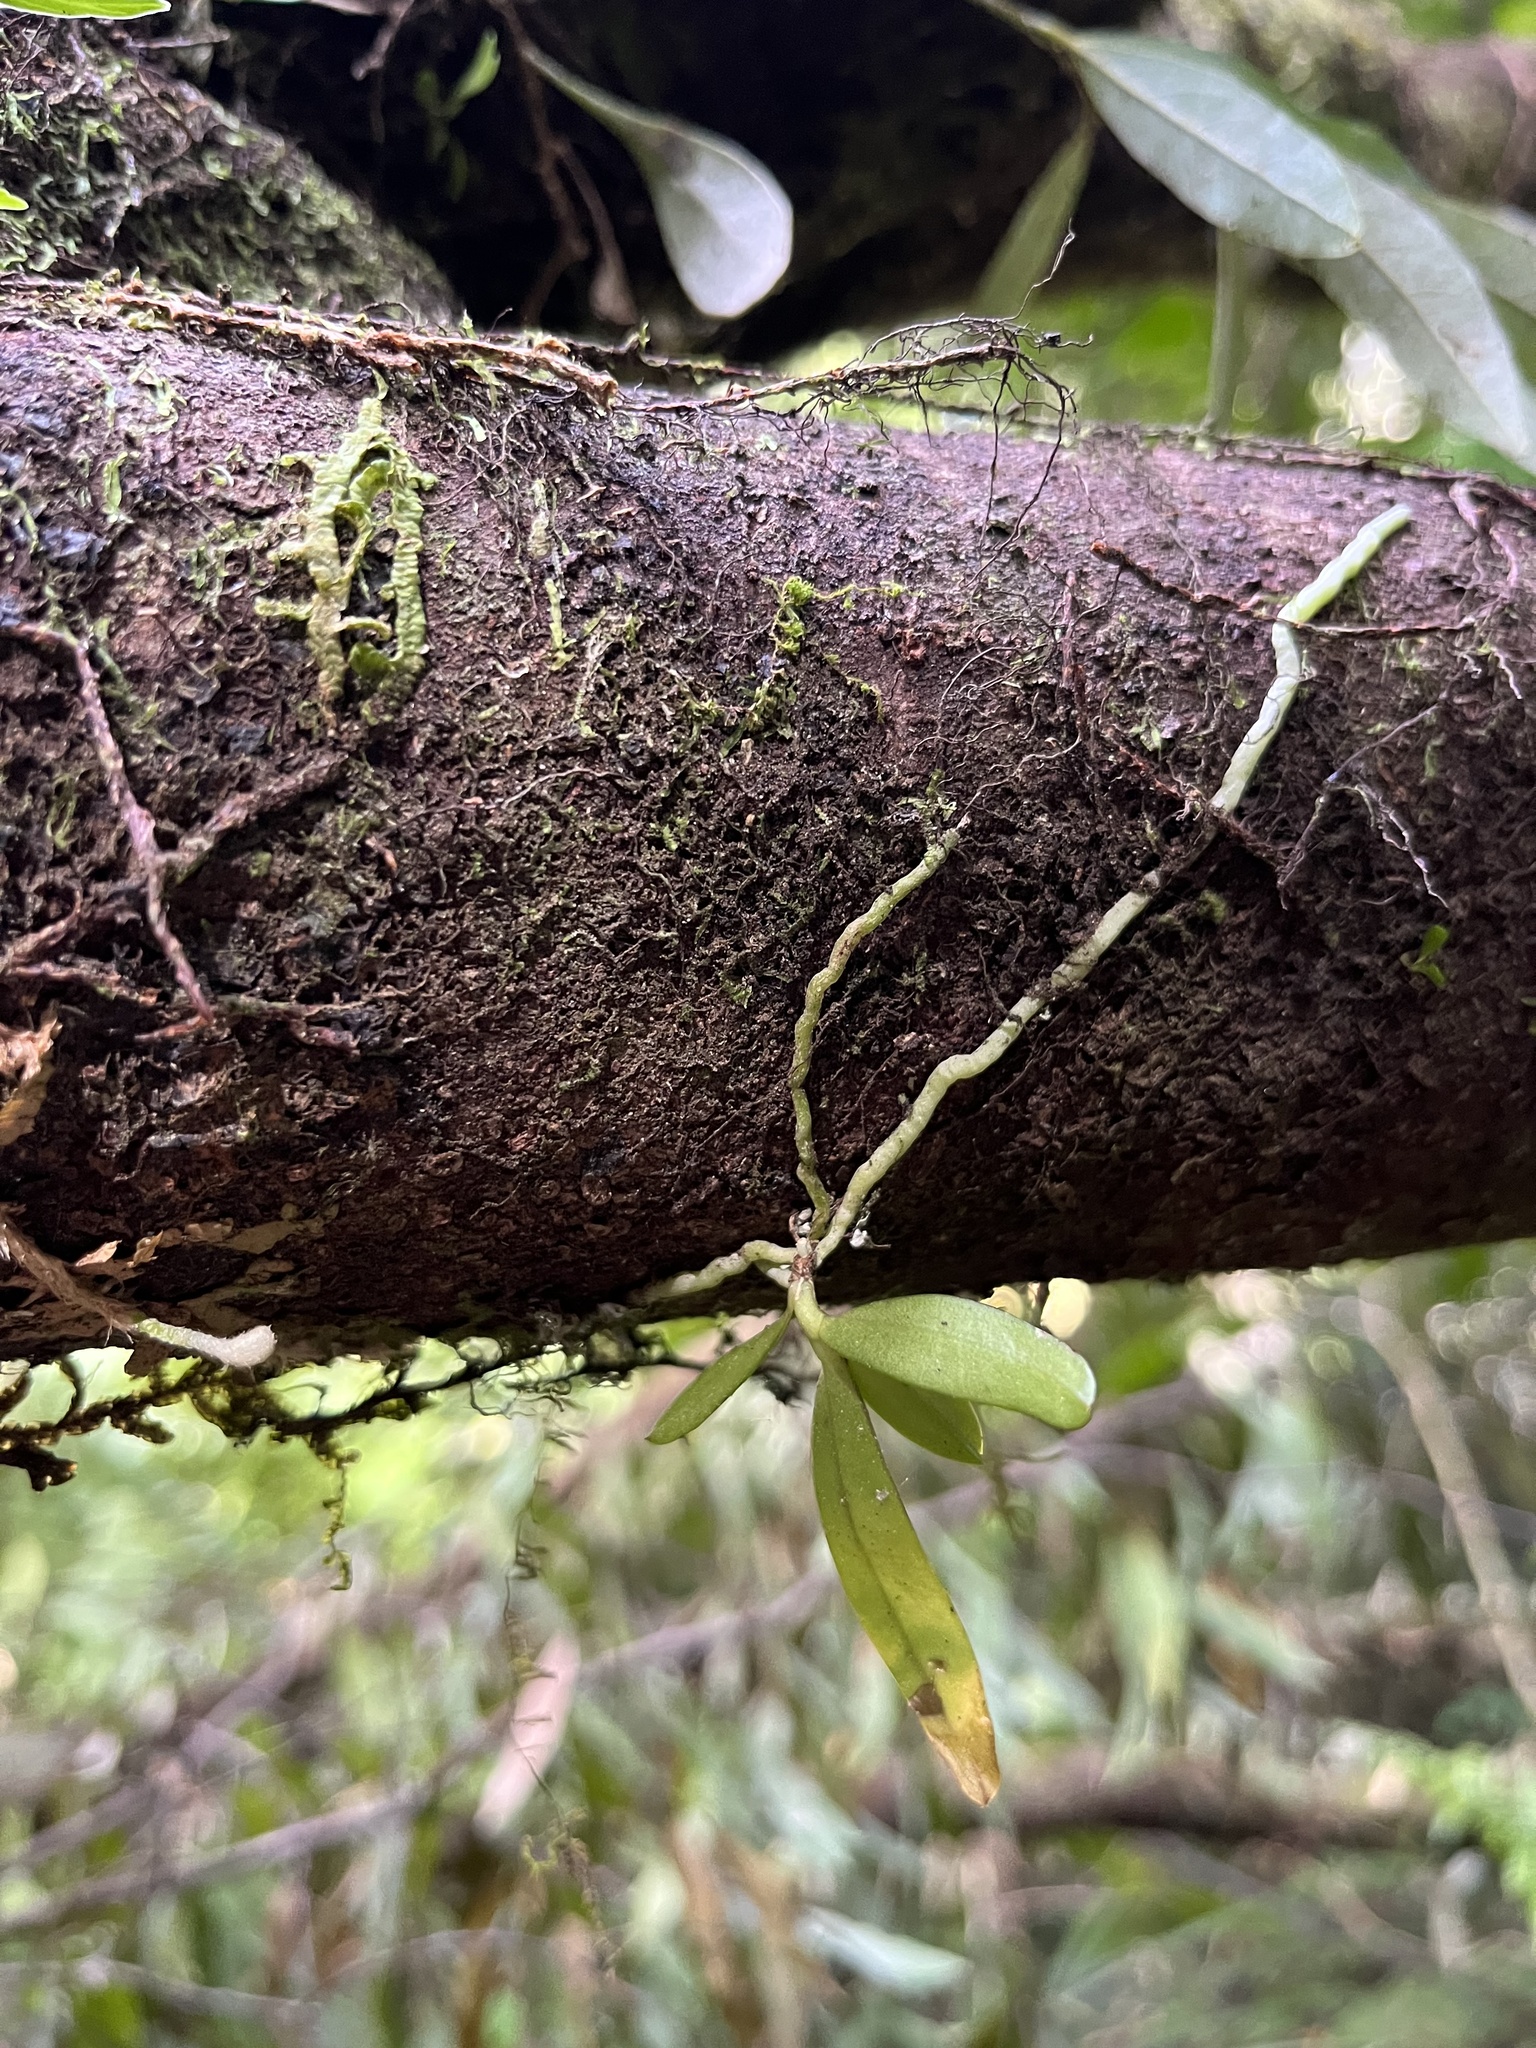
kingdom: Plantae
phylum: Tracheophyta
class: Liliopsida
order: Asparagales
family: Orchidaceae
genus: Drymoanthus
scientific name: Drymoanthus adversus
